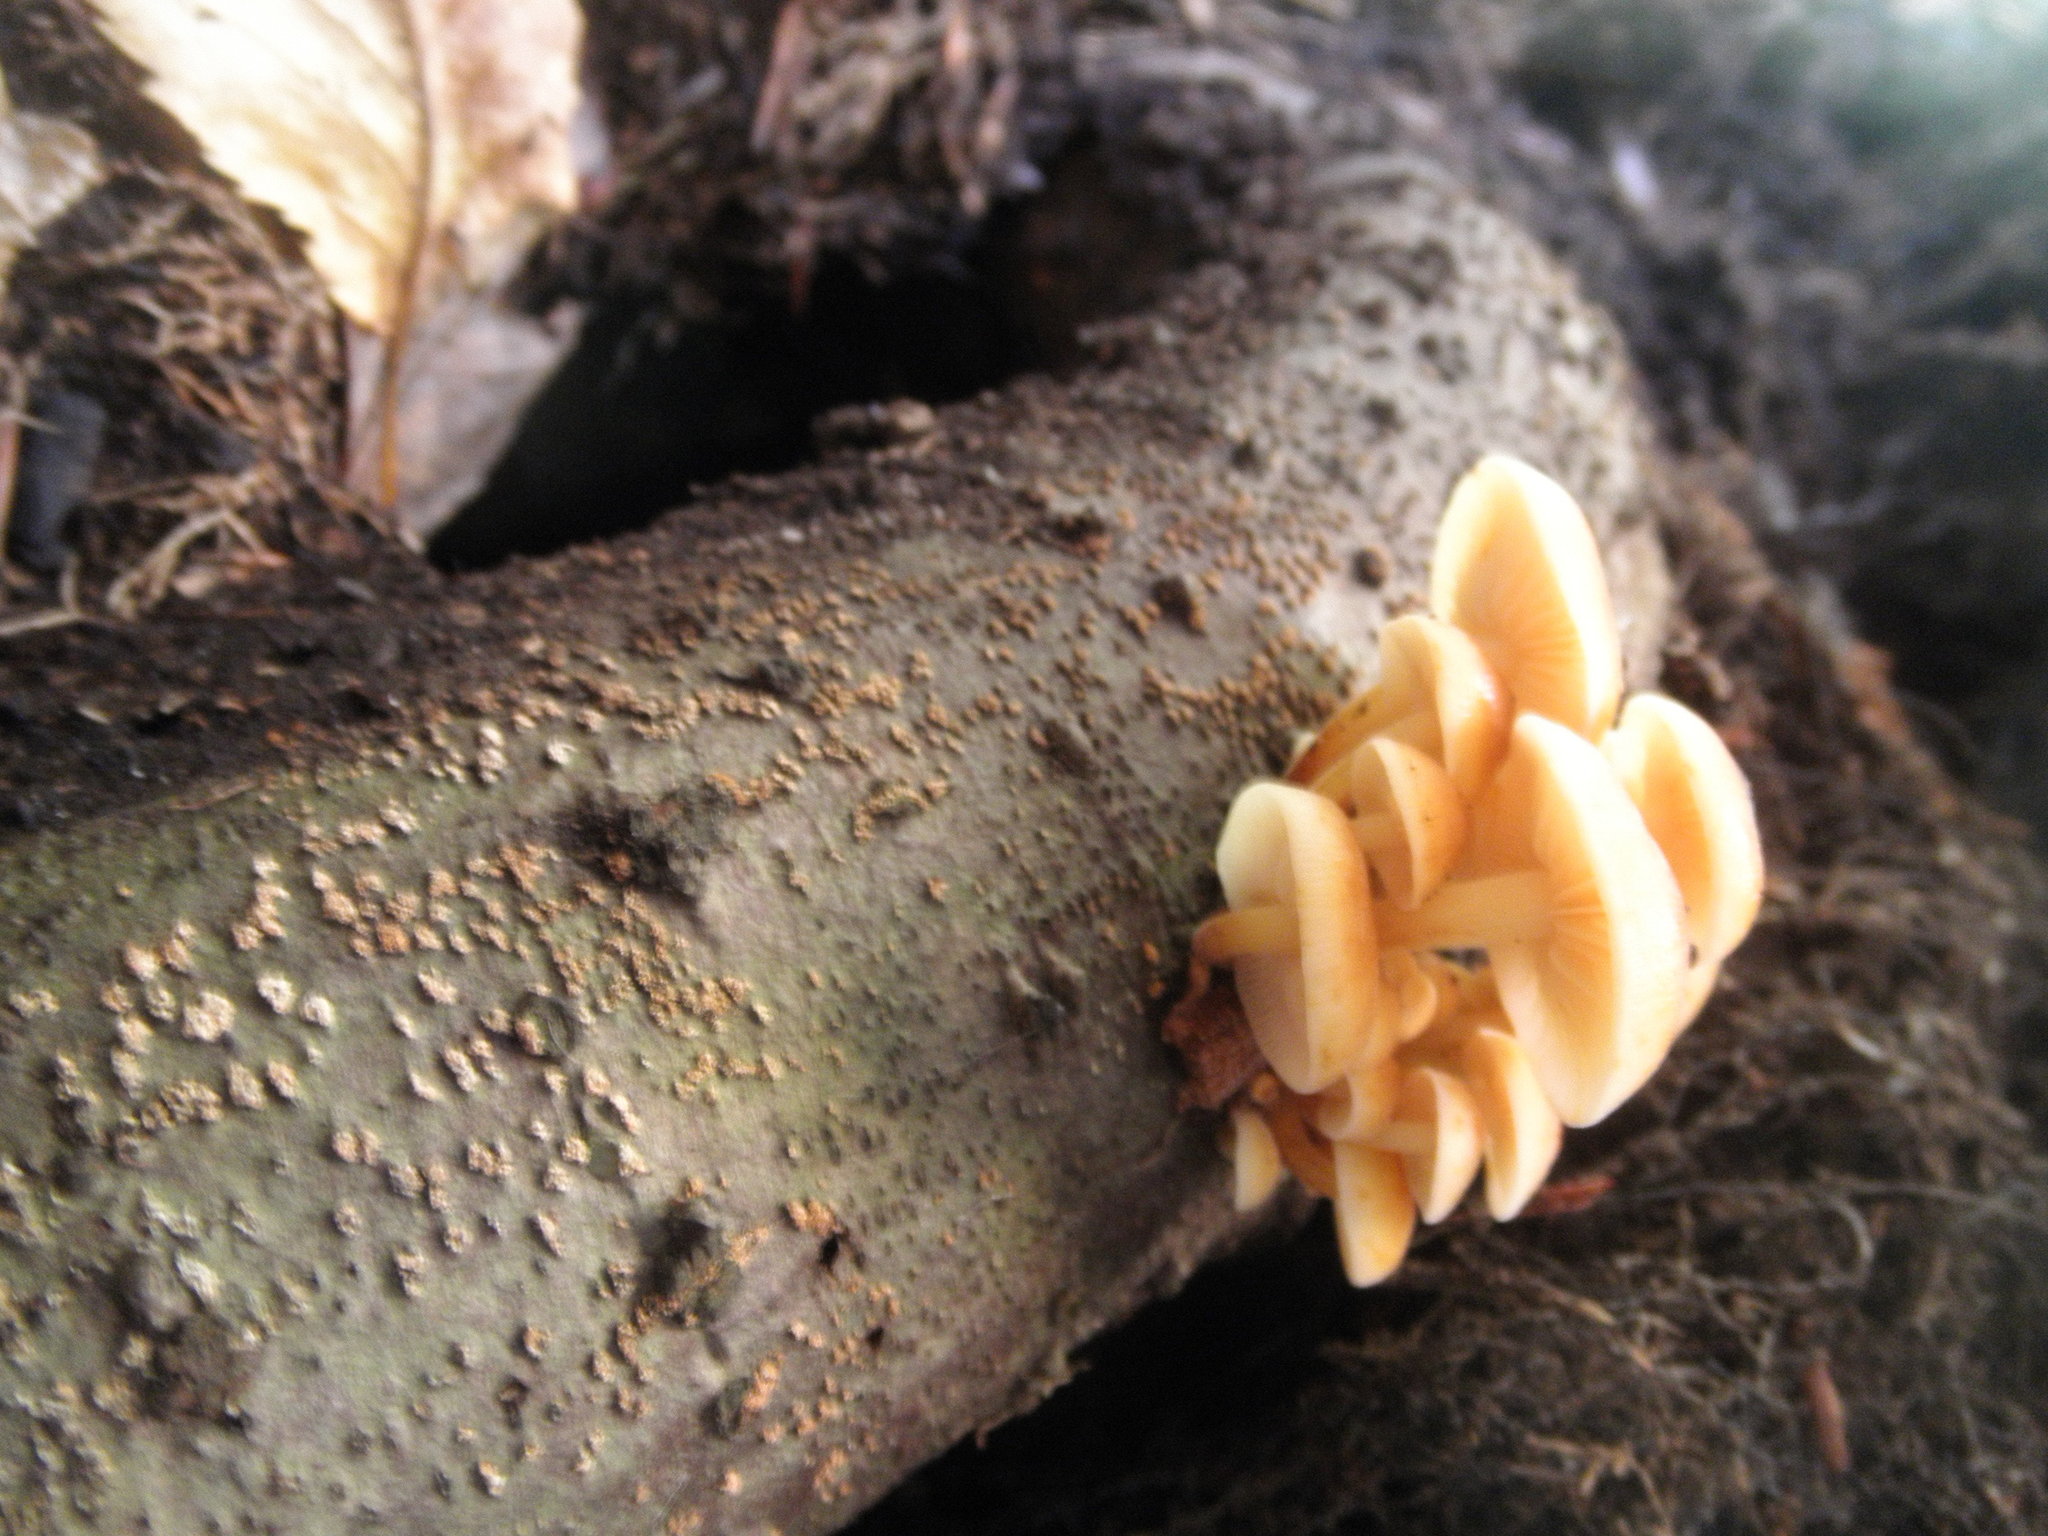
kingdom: Fungi
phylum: Basidiomycota
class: Agaricomycetes
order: Agaricales
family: Physalacriaceae
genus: Flammulina
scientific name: Flammulina velutipes
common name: Velvet shank
